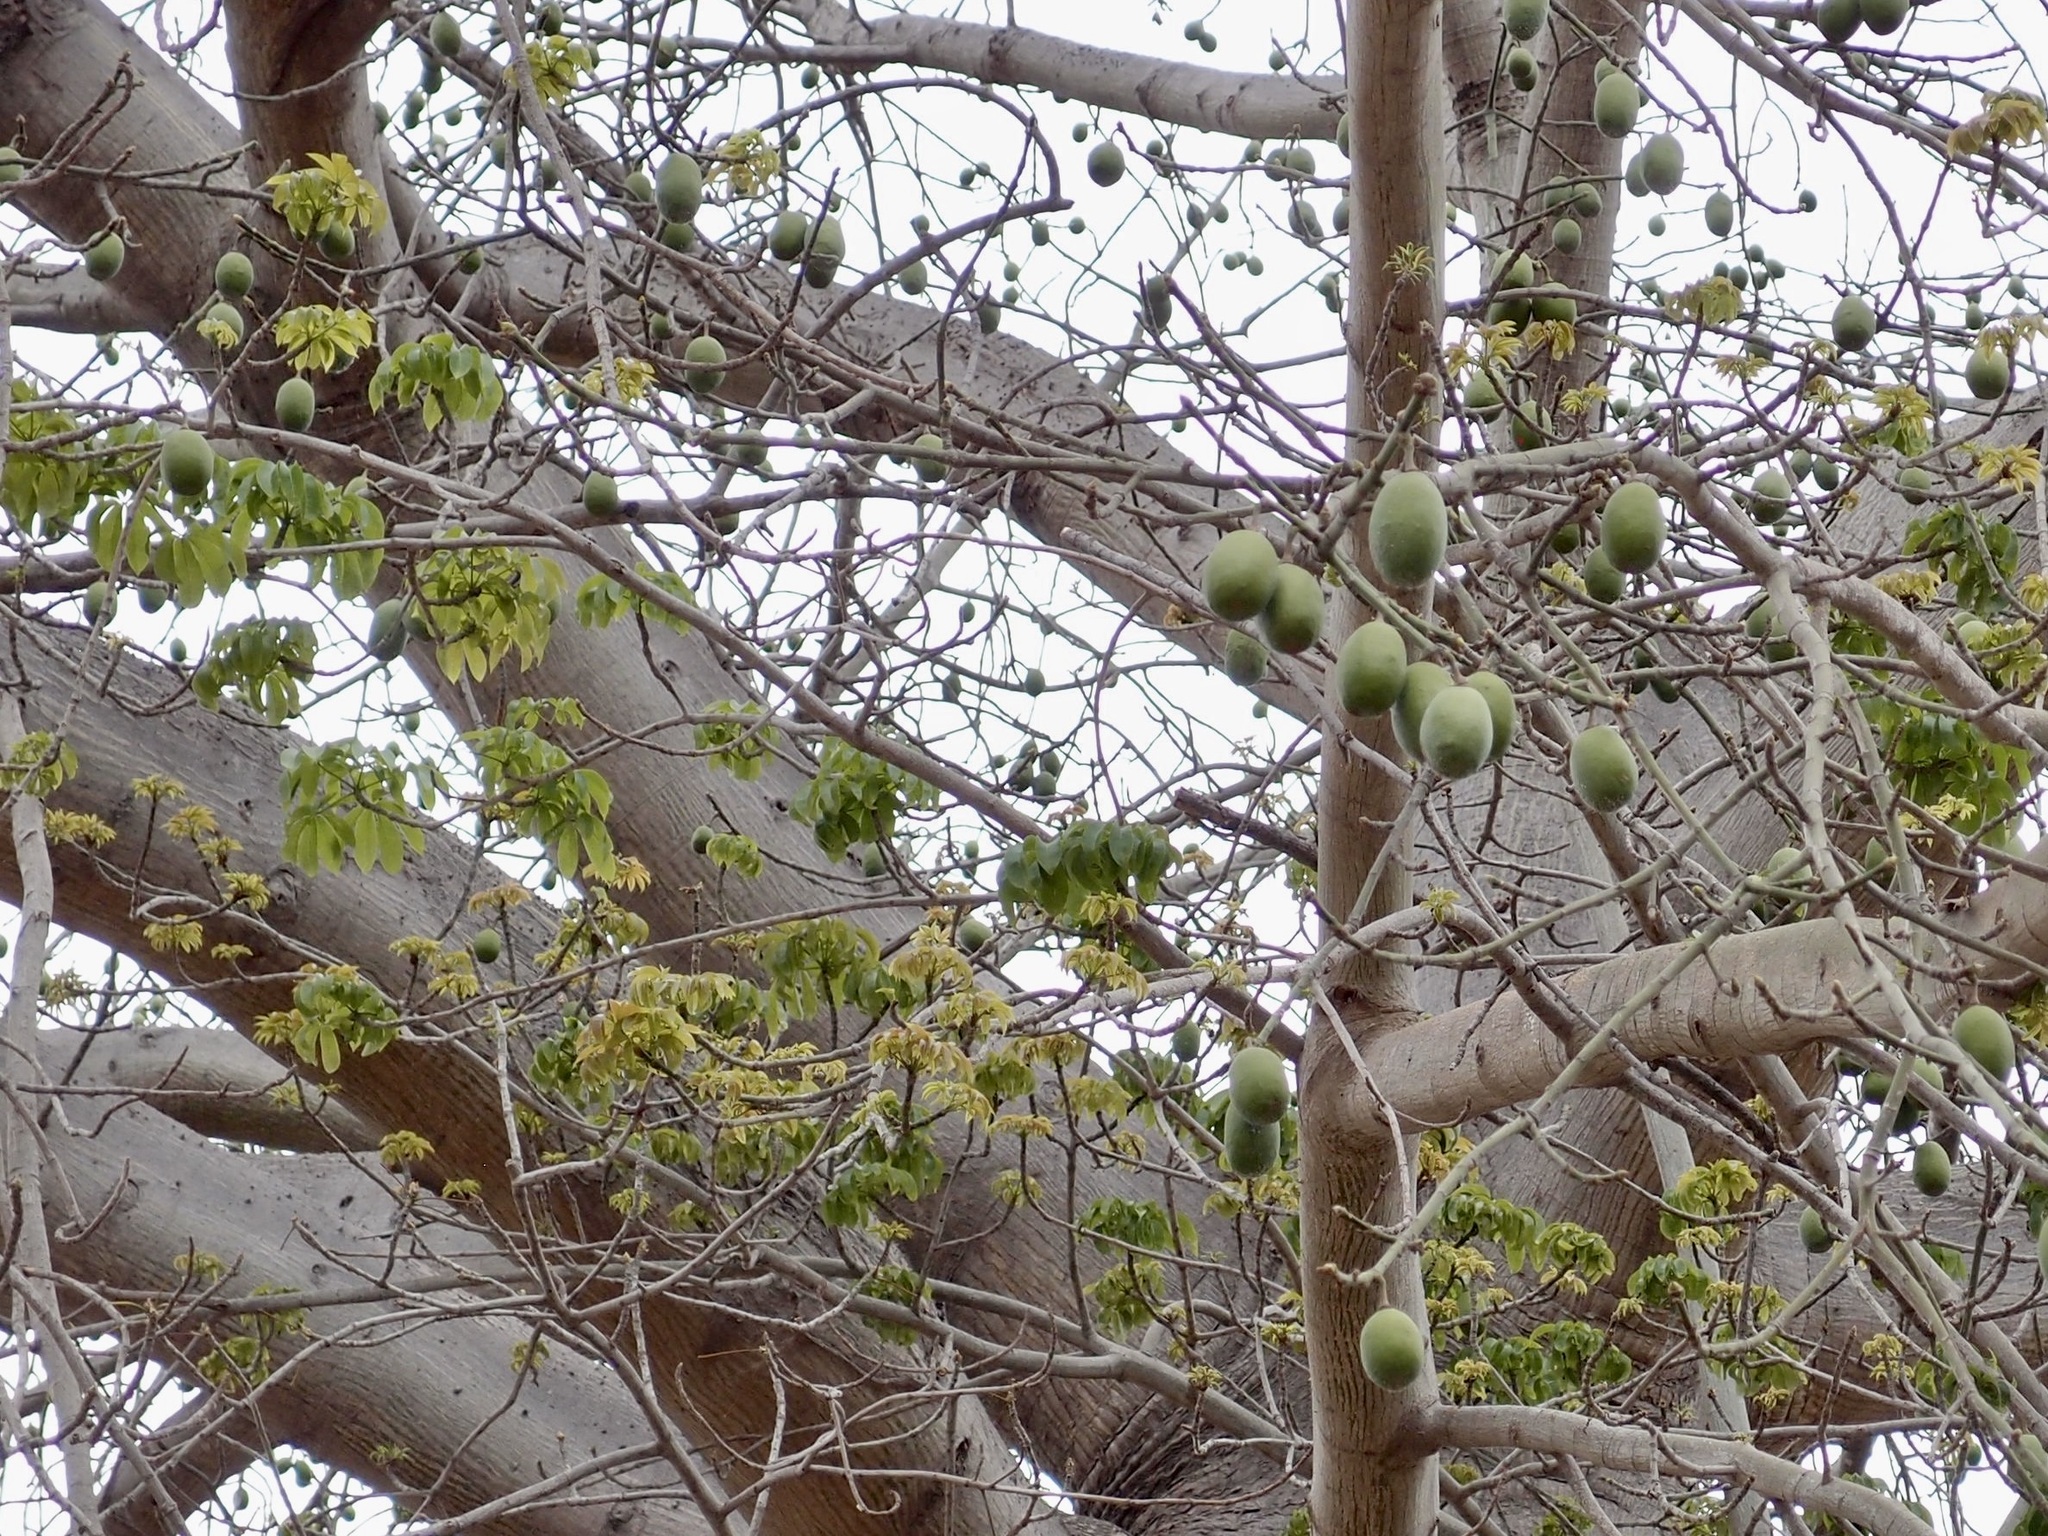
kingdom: Plantae
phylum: Tracheophyta
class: Magnoliopsida
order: Malvales
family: Malvaceae
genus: Ceiba
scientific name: Ceiba pentandra
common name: Kapok
